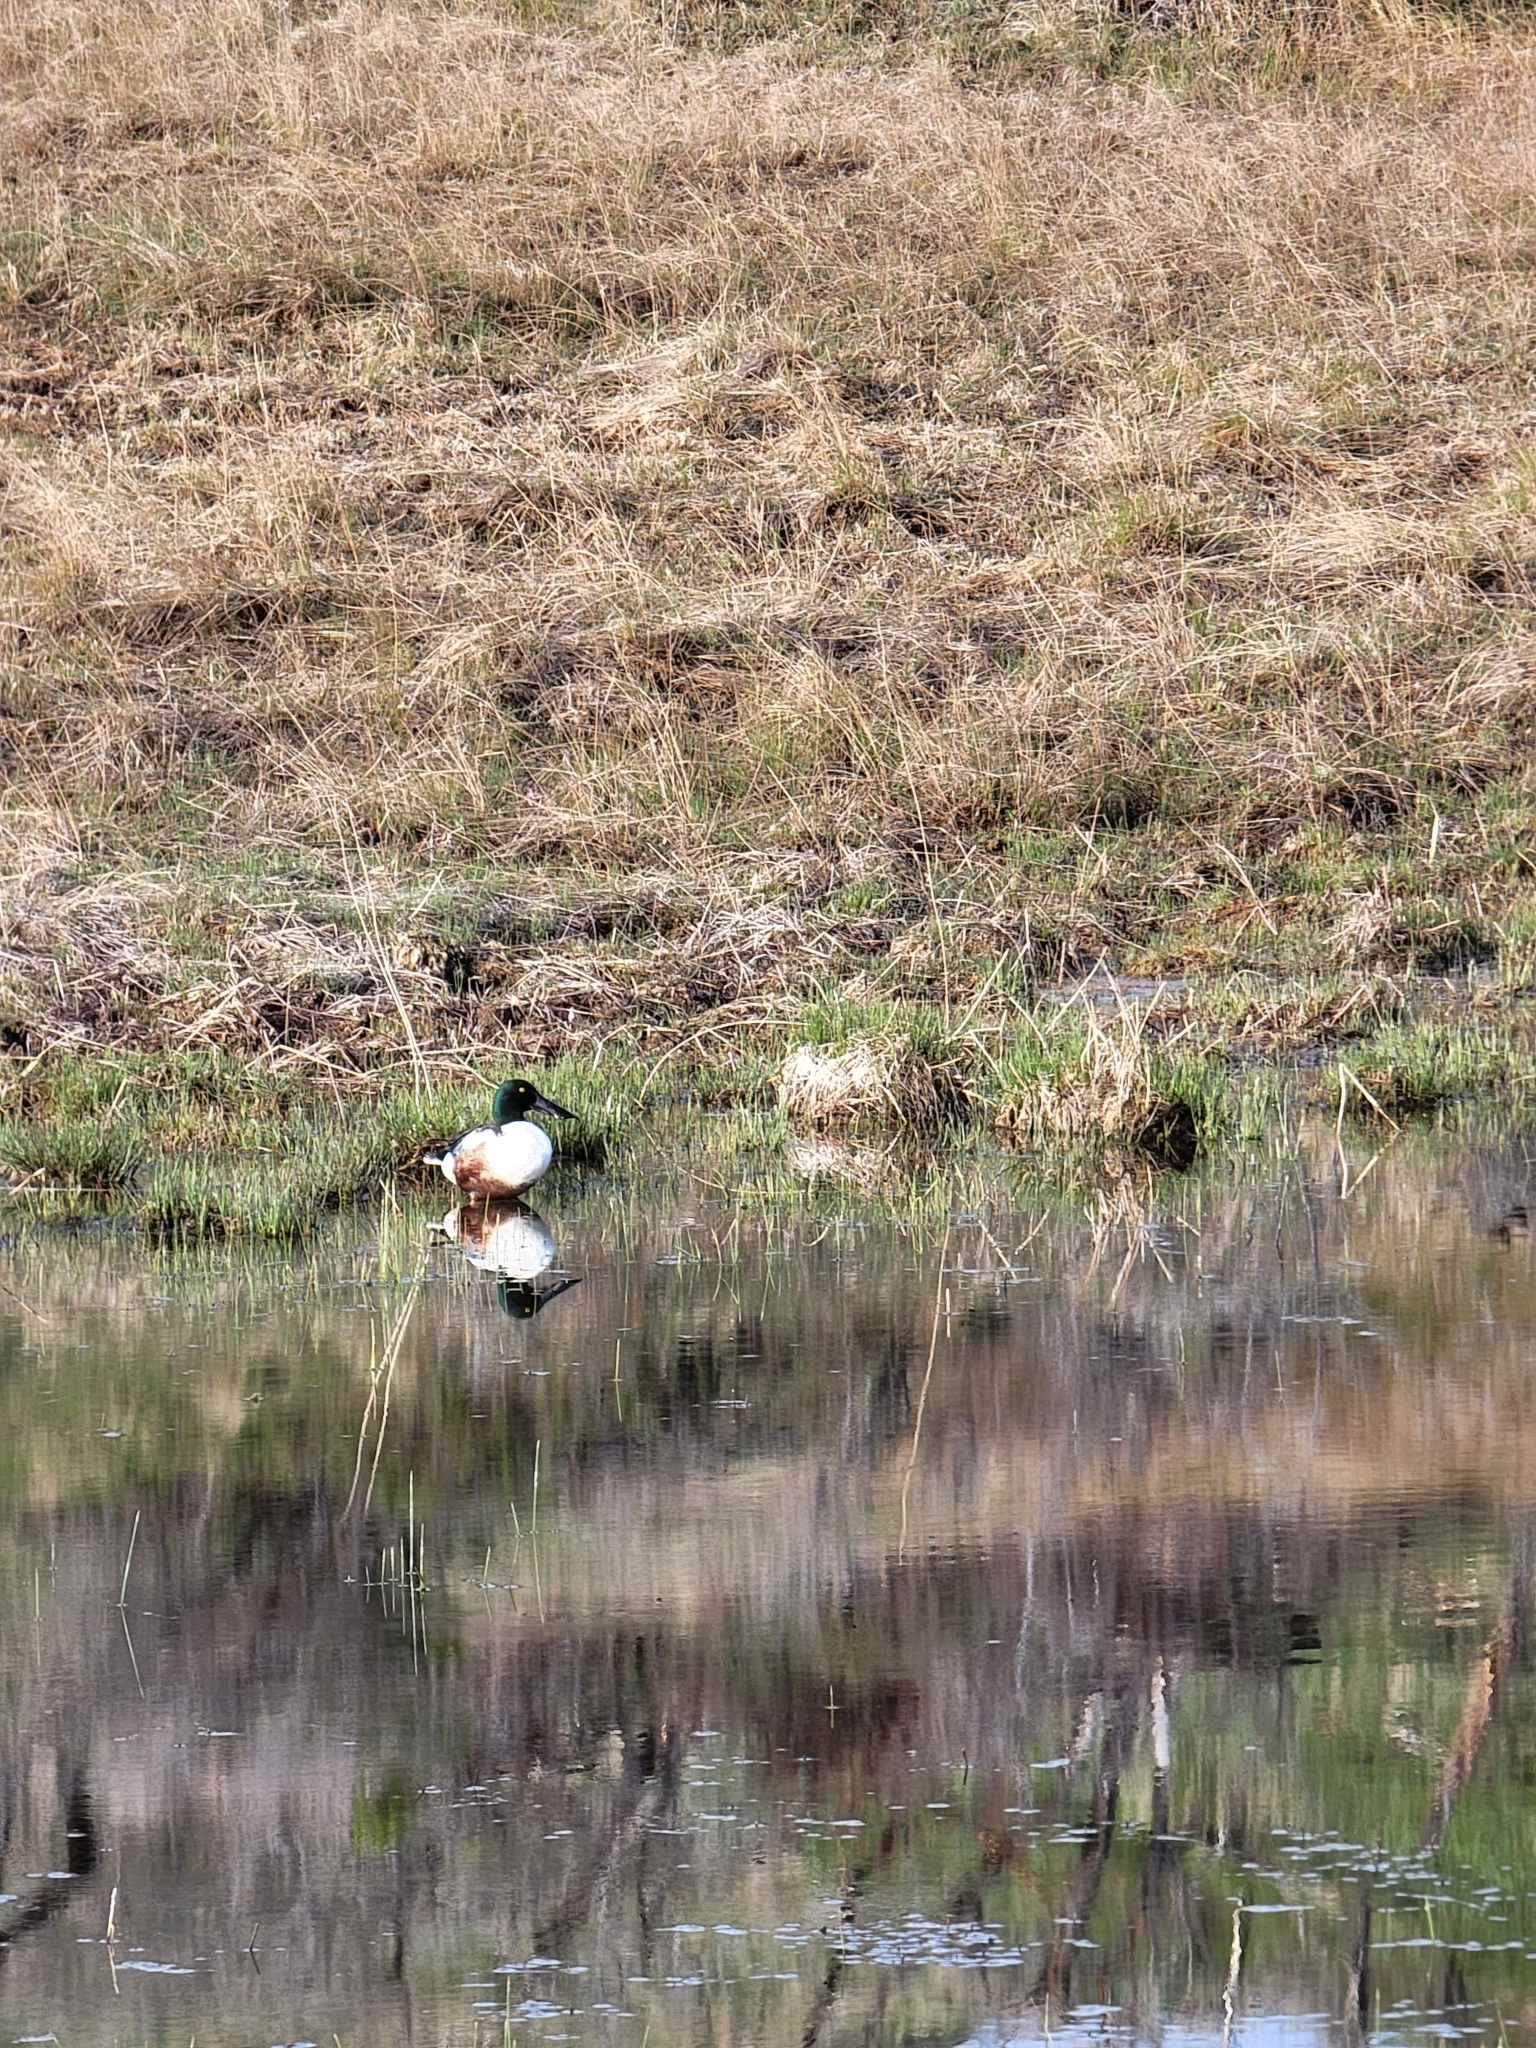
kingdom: Animalia
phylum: Chordata
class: Aves
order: Anseriformes
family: Anatidae
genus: Spatula
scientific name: Spatula clypeata
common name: Northern shoveler
